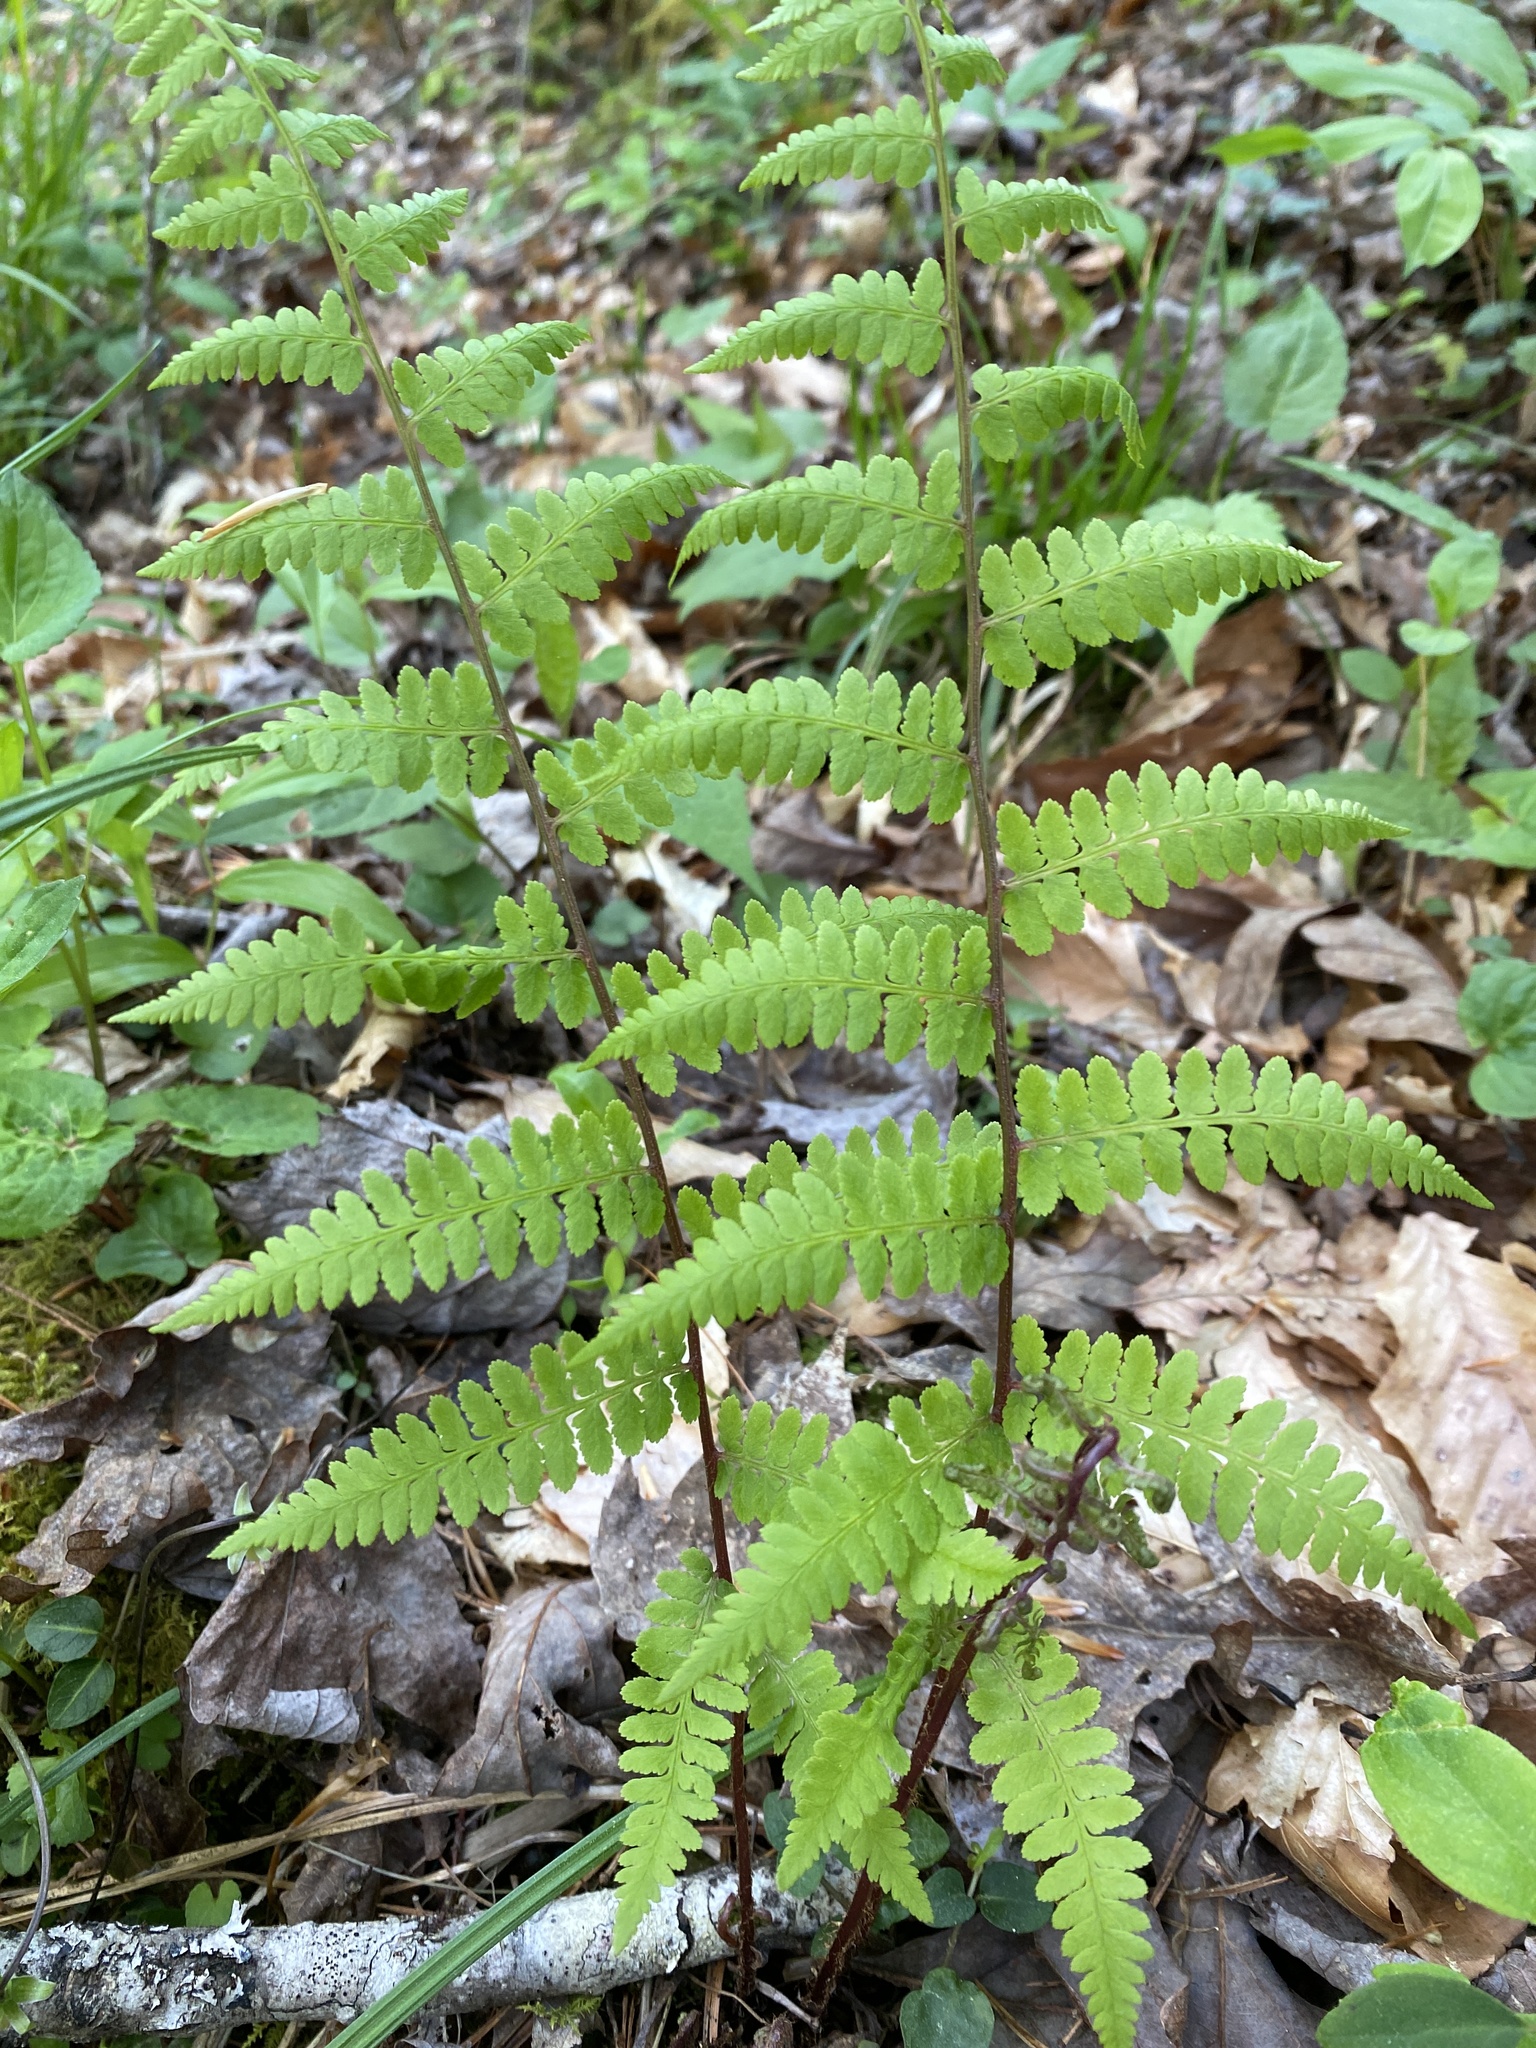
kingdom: Plantae
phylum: Tracheophyta
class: Polypodiopsida
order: Polypodiales
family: Athyriaceae
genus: Athyrium
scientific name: Athyrium asplenioides
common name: Southern lady fern
